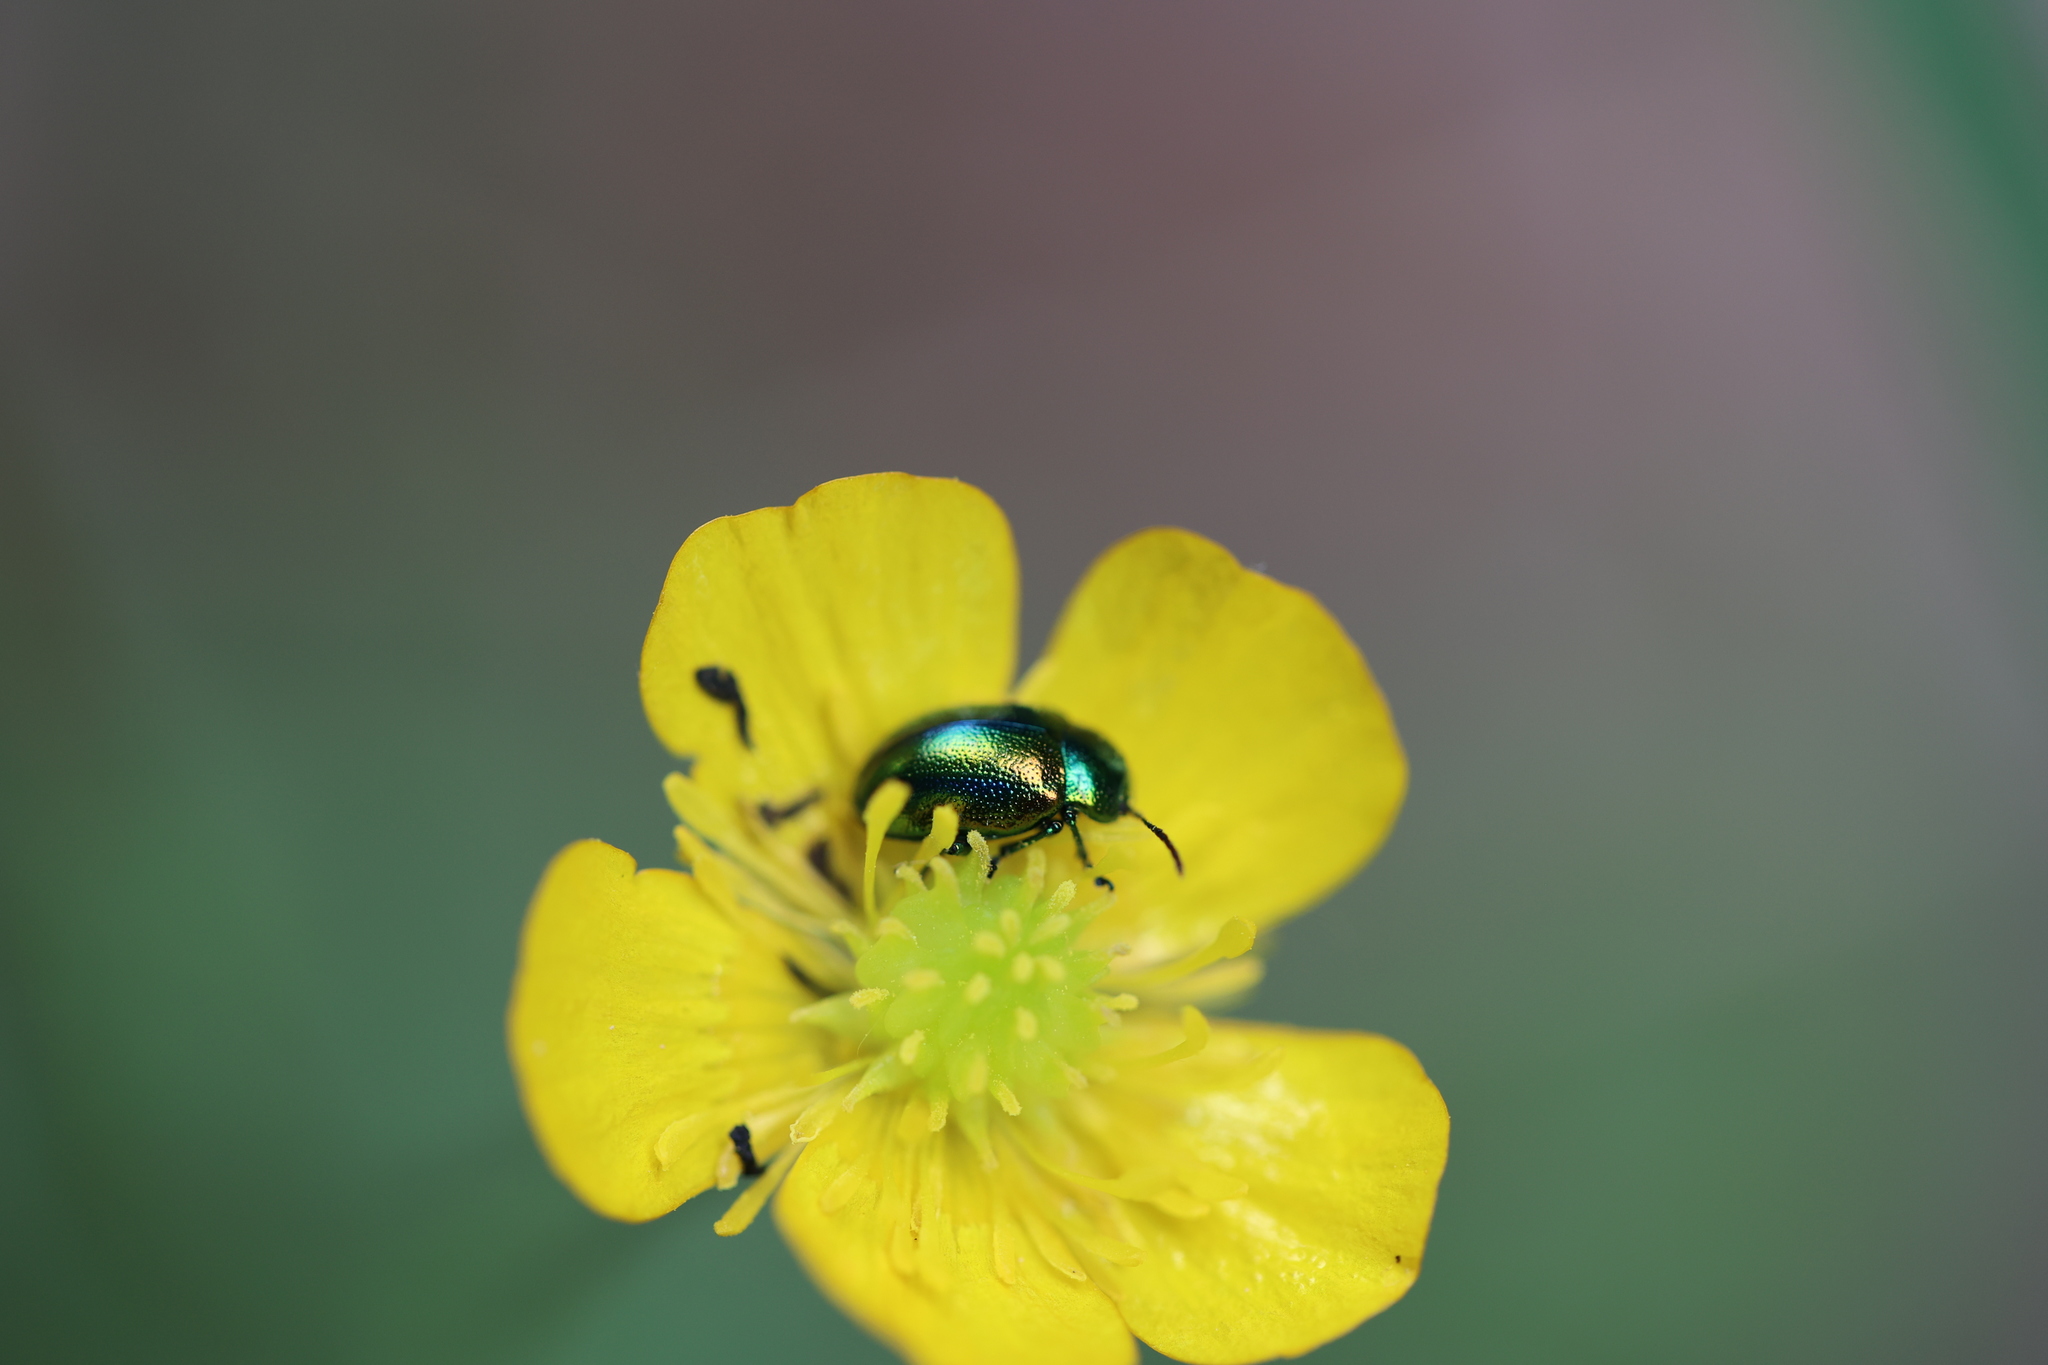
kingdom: Animalia
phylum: Arthropoda
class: Insecta
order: Coleoptera
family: Chrysomelidae
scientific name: Chrysomelidae
